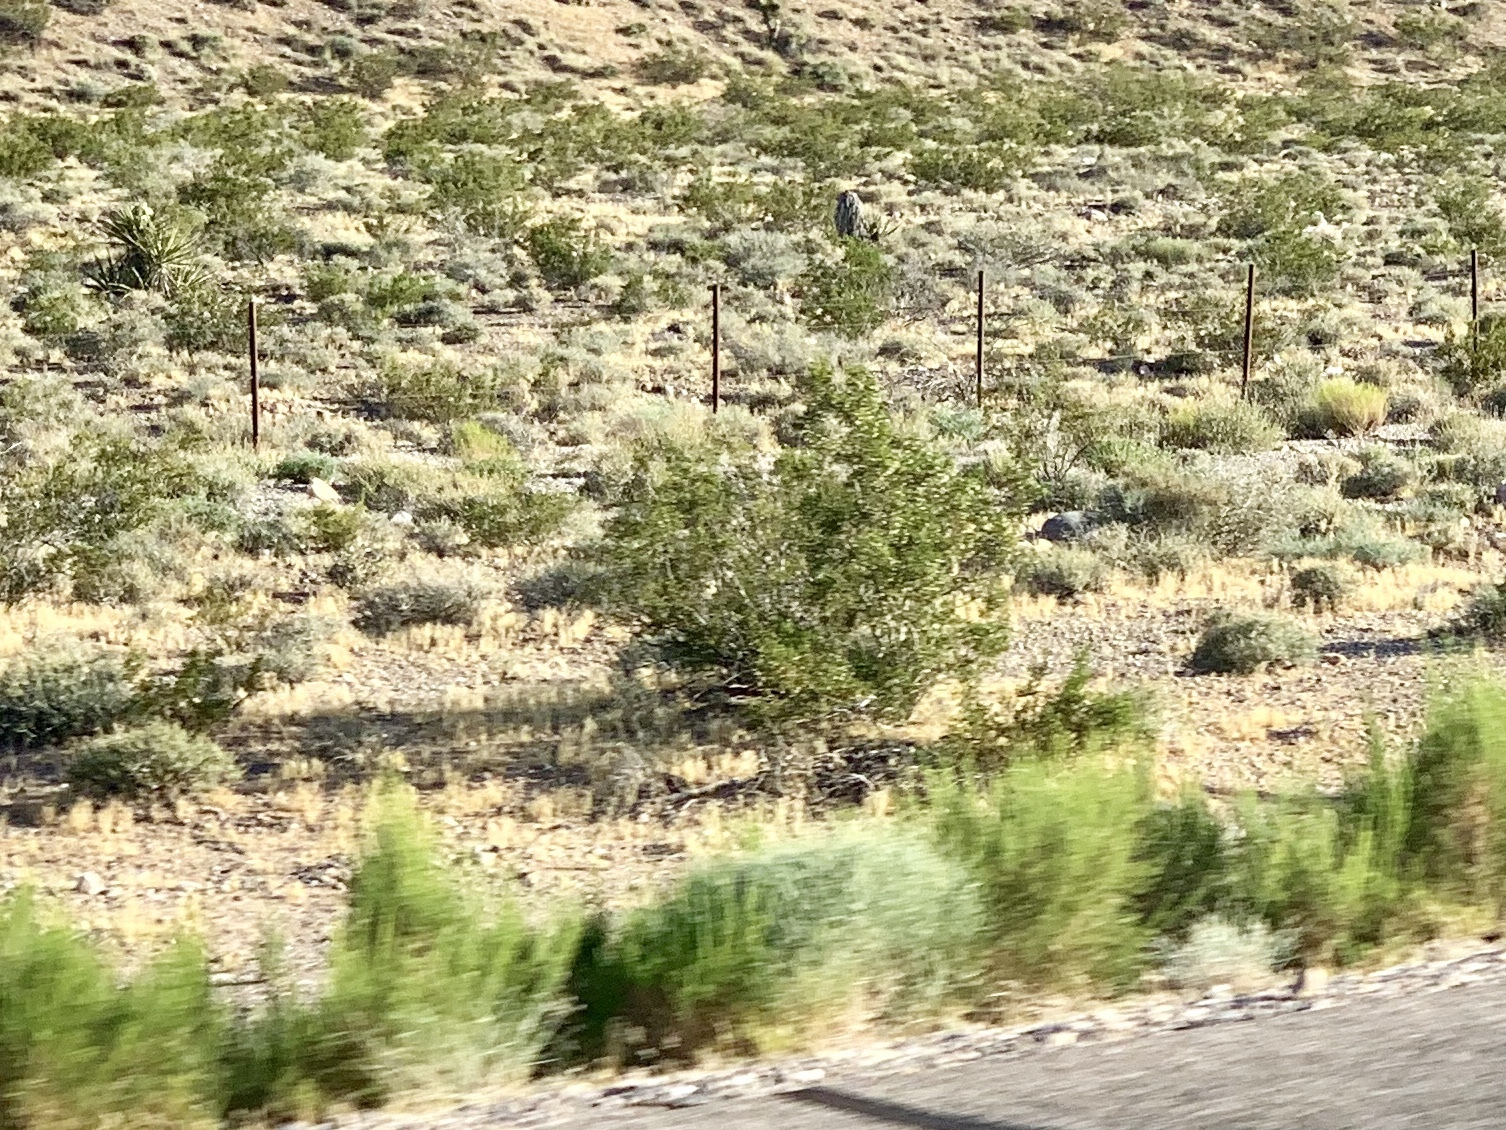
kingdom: Plantae
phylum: Tracheophyta
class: Magnoliopsida
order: Zygophyllales
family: Zygophyllaceae
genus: Larrea
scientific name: Larrea tridentata
